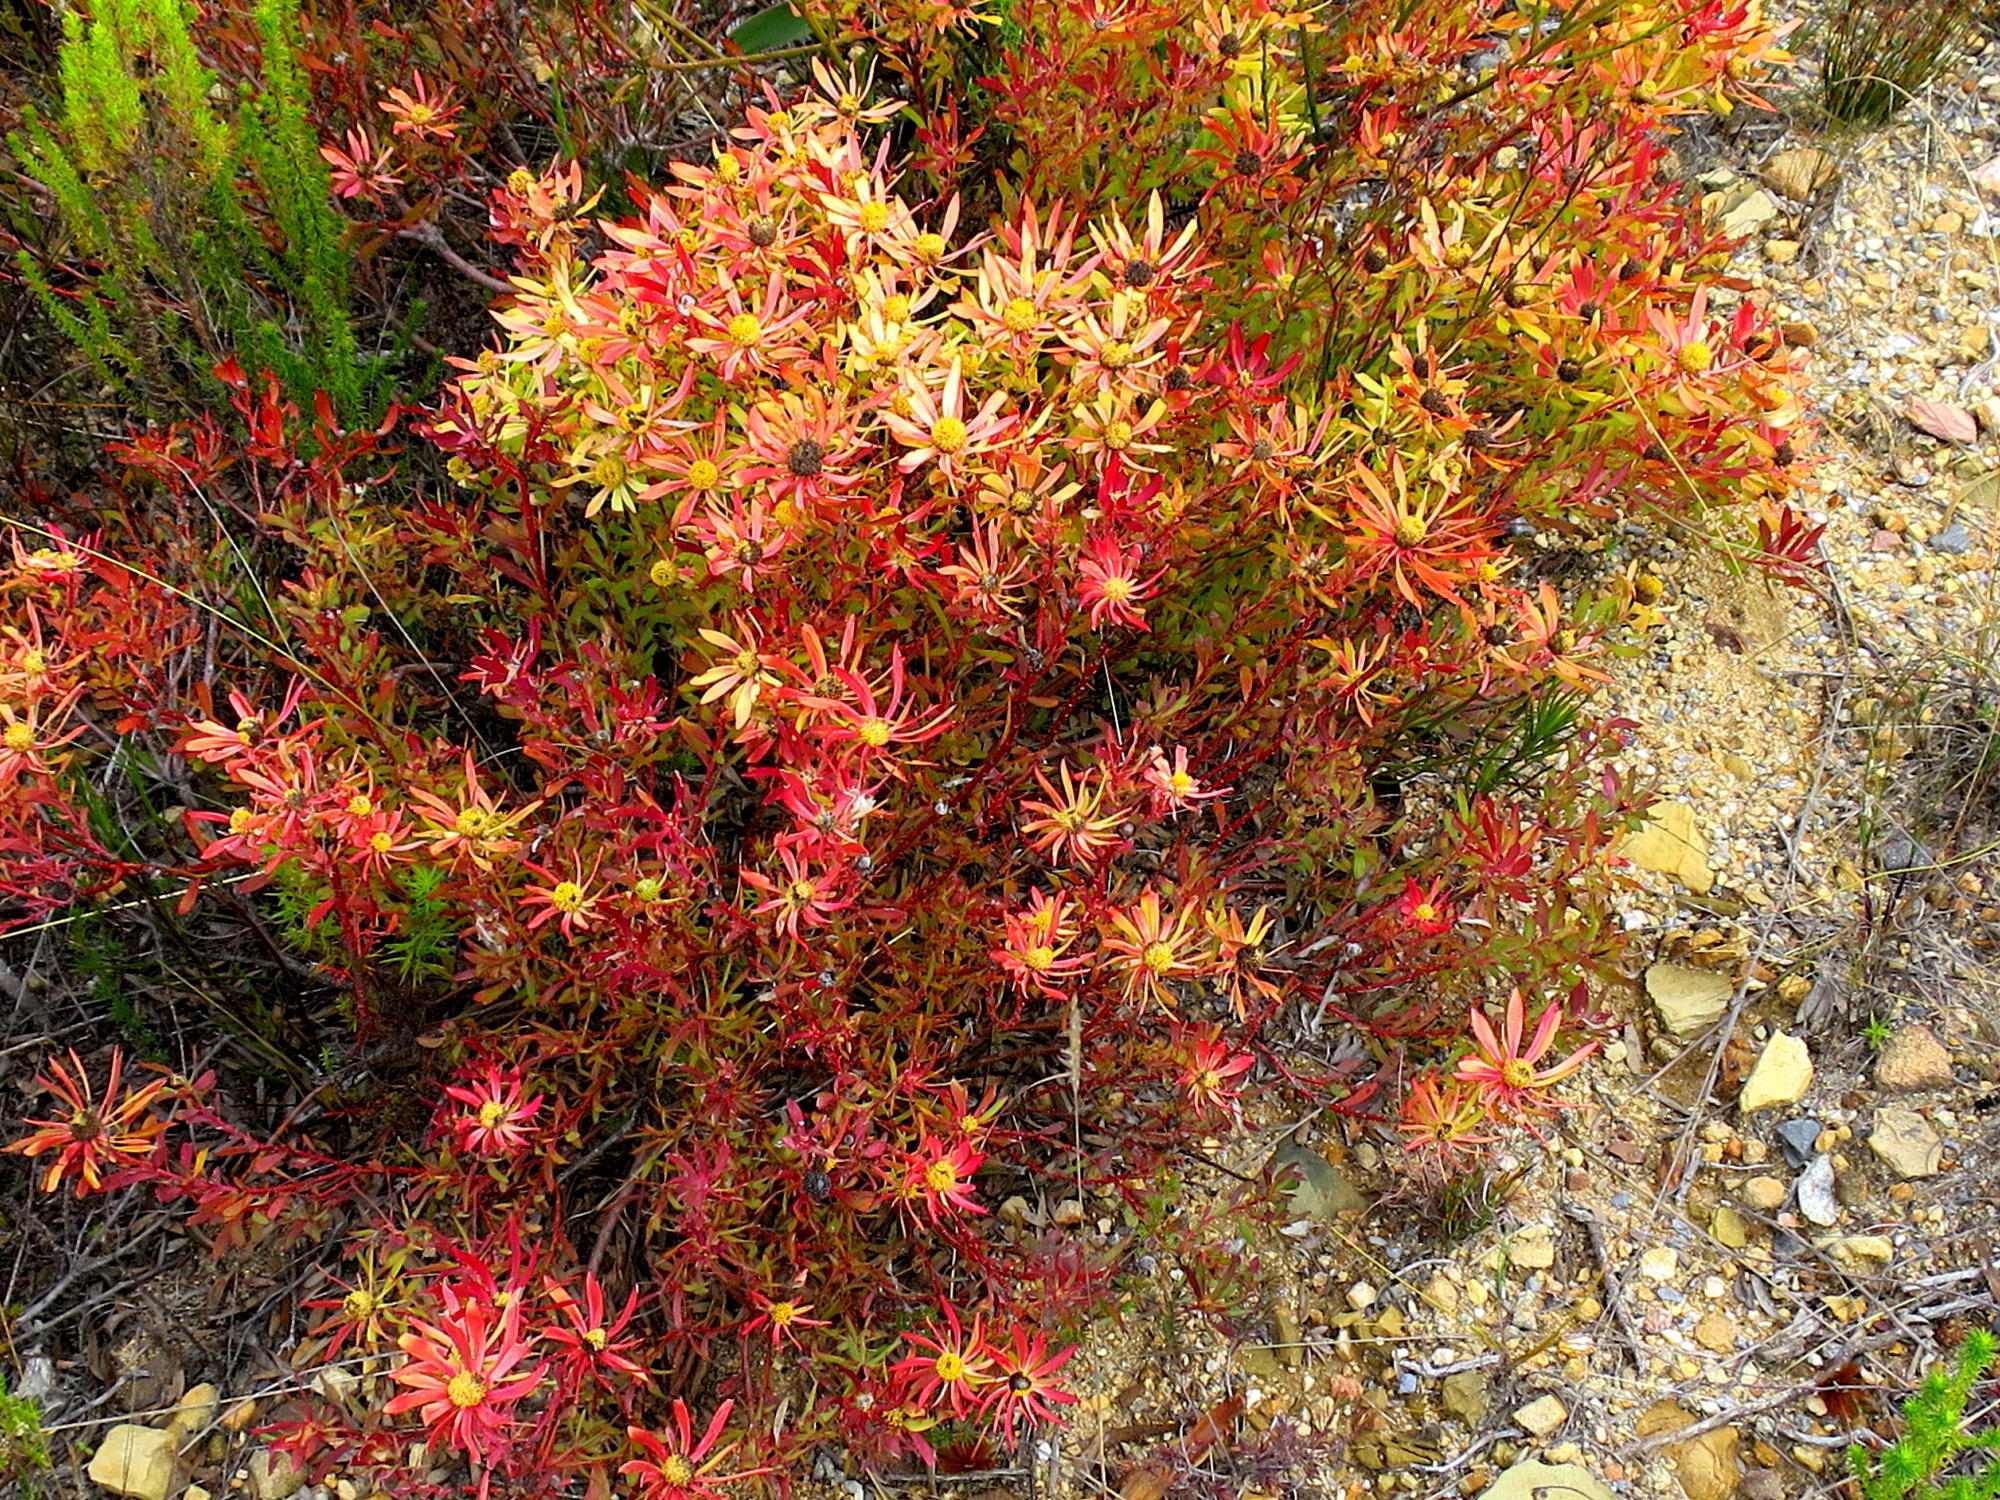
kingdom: Plantae
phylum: Tracheophyta
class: Magnoliopsida
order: Proteales
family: Proteaceae
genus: Leucadendron
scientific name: Leucadendron salignum
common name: Common sunshine conebush
